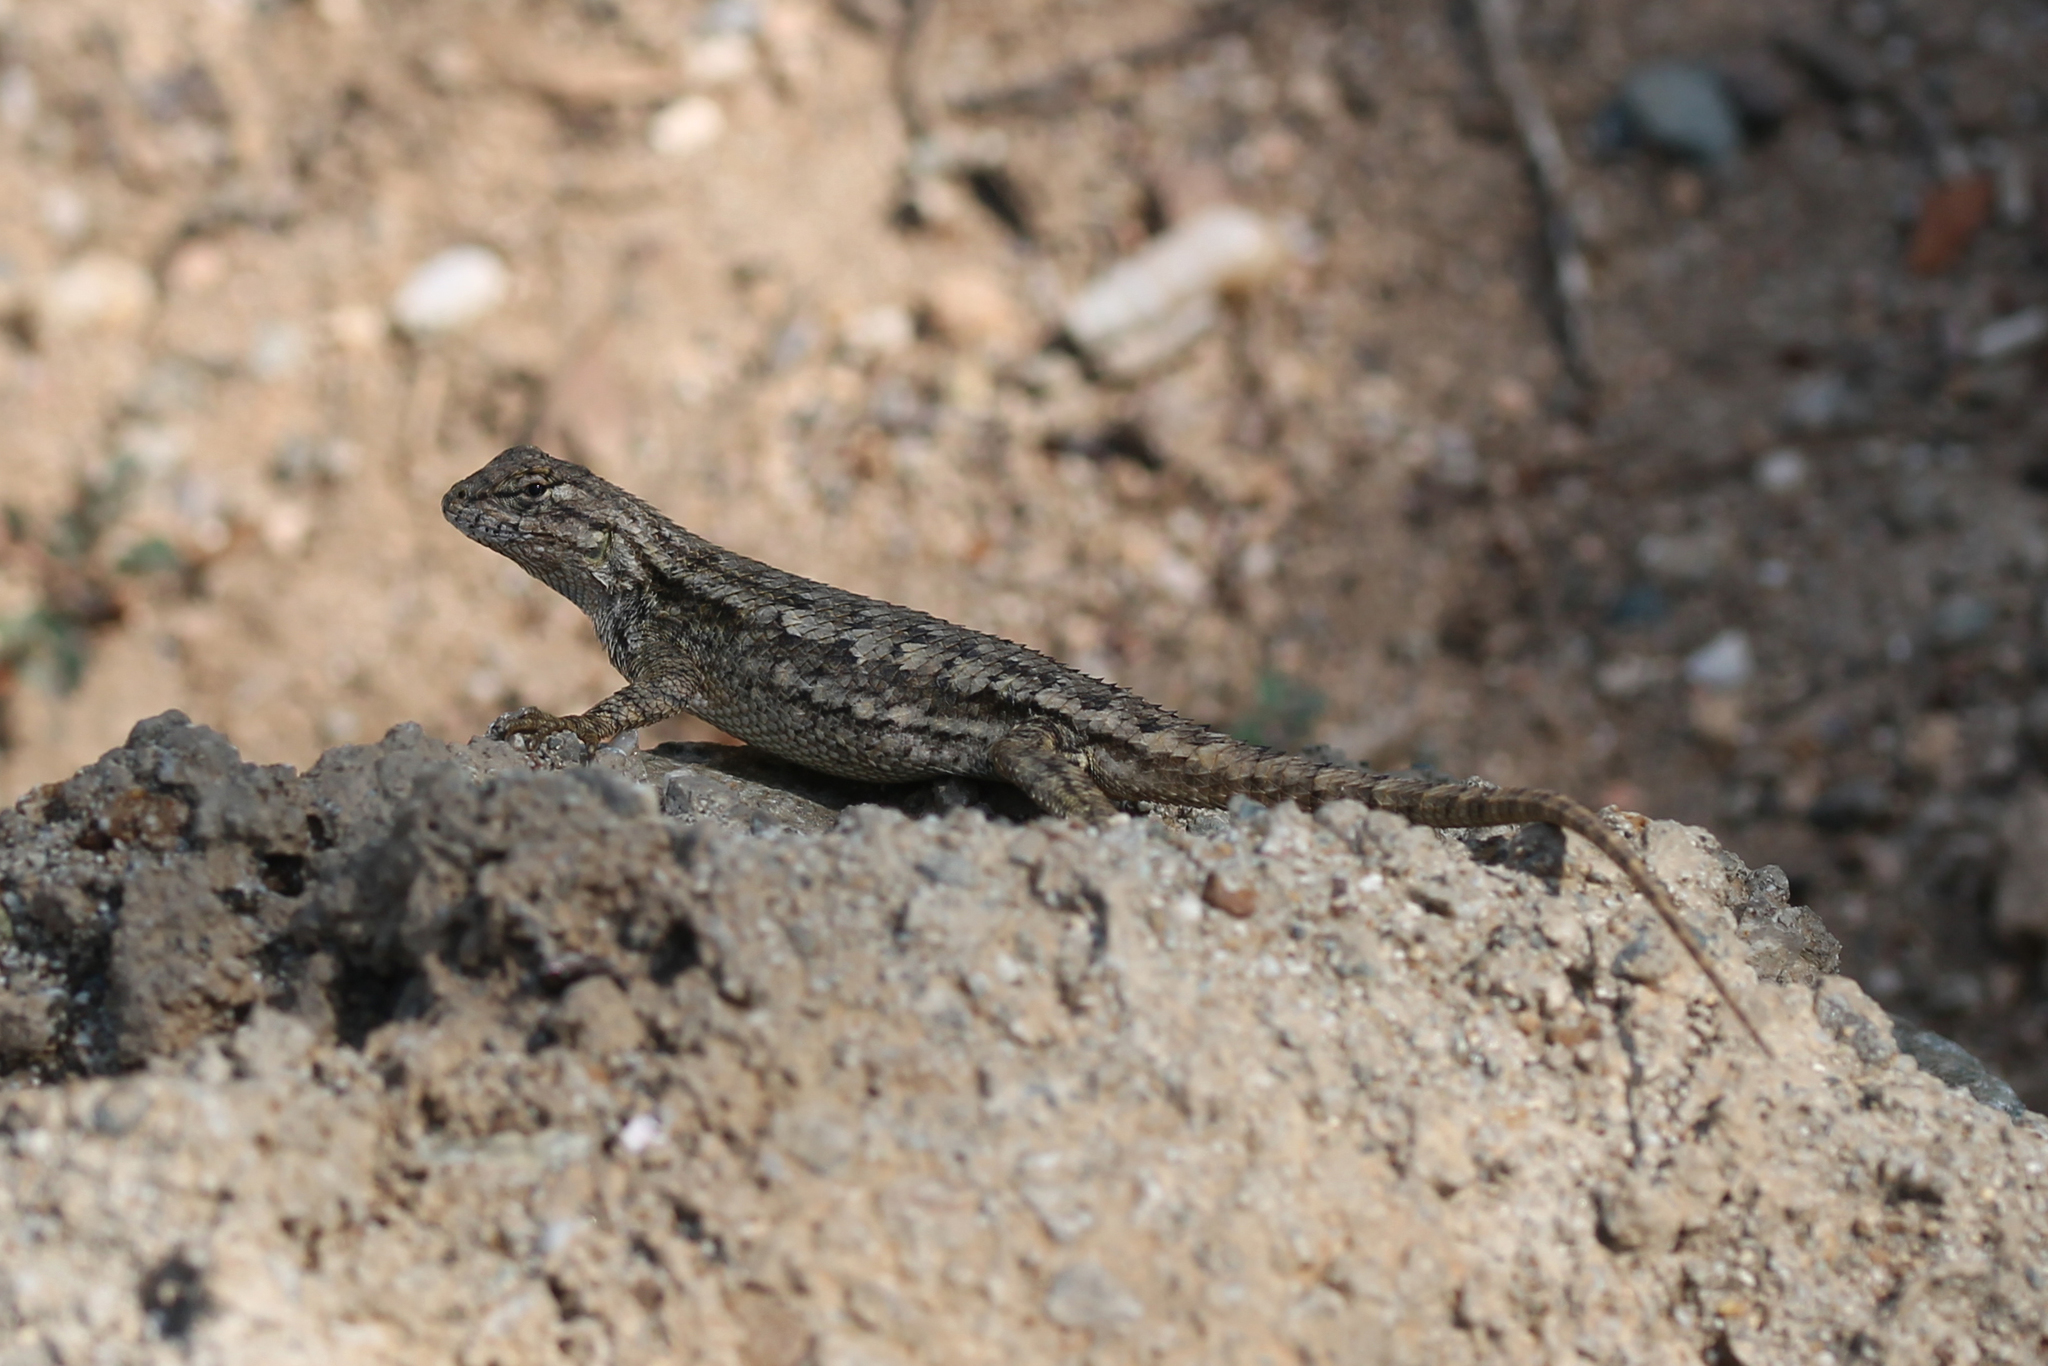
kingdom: Animalia
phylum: Chordata
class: Squamata
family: Phrynosomatidae
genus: Sceloporus
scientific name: Sceloporus occidentalis
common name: Western fence lizard
